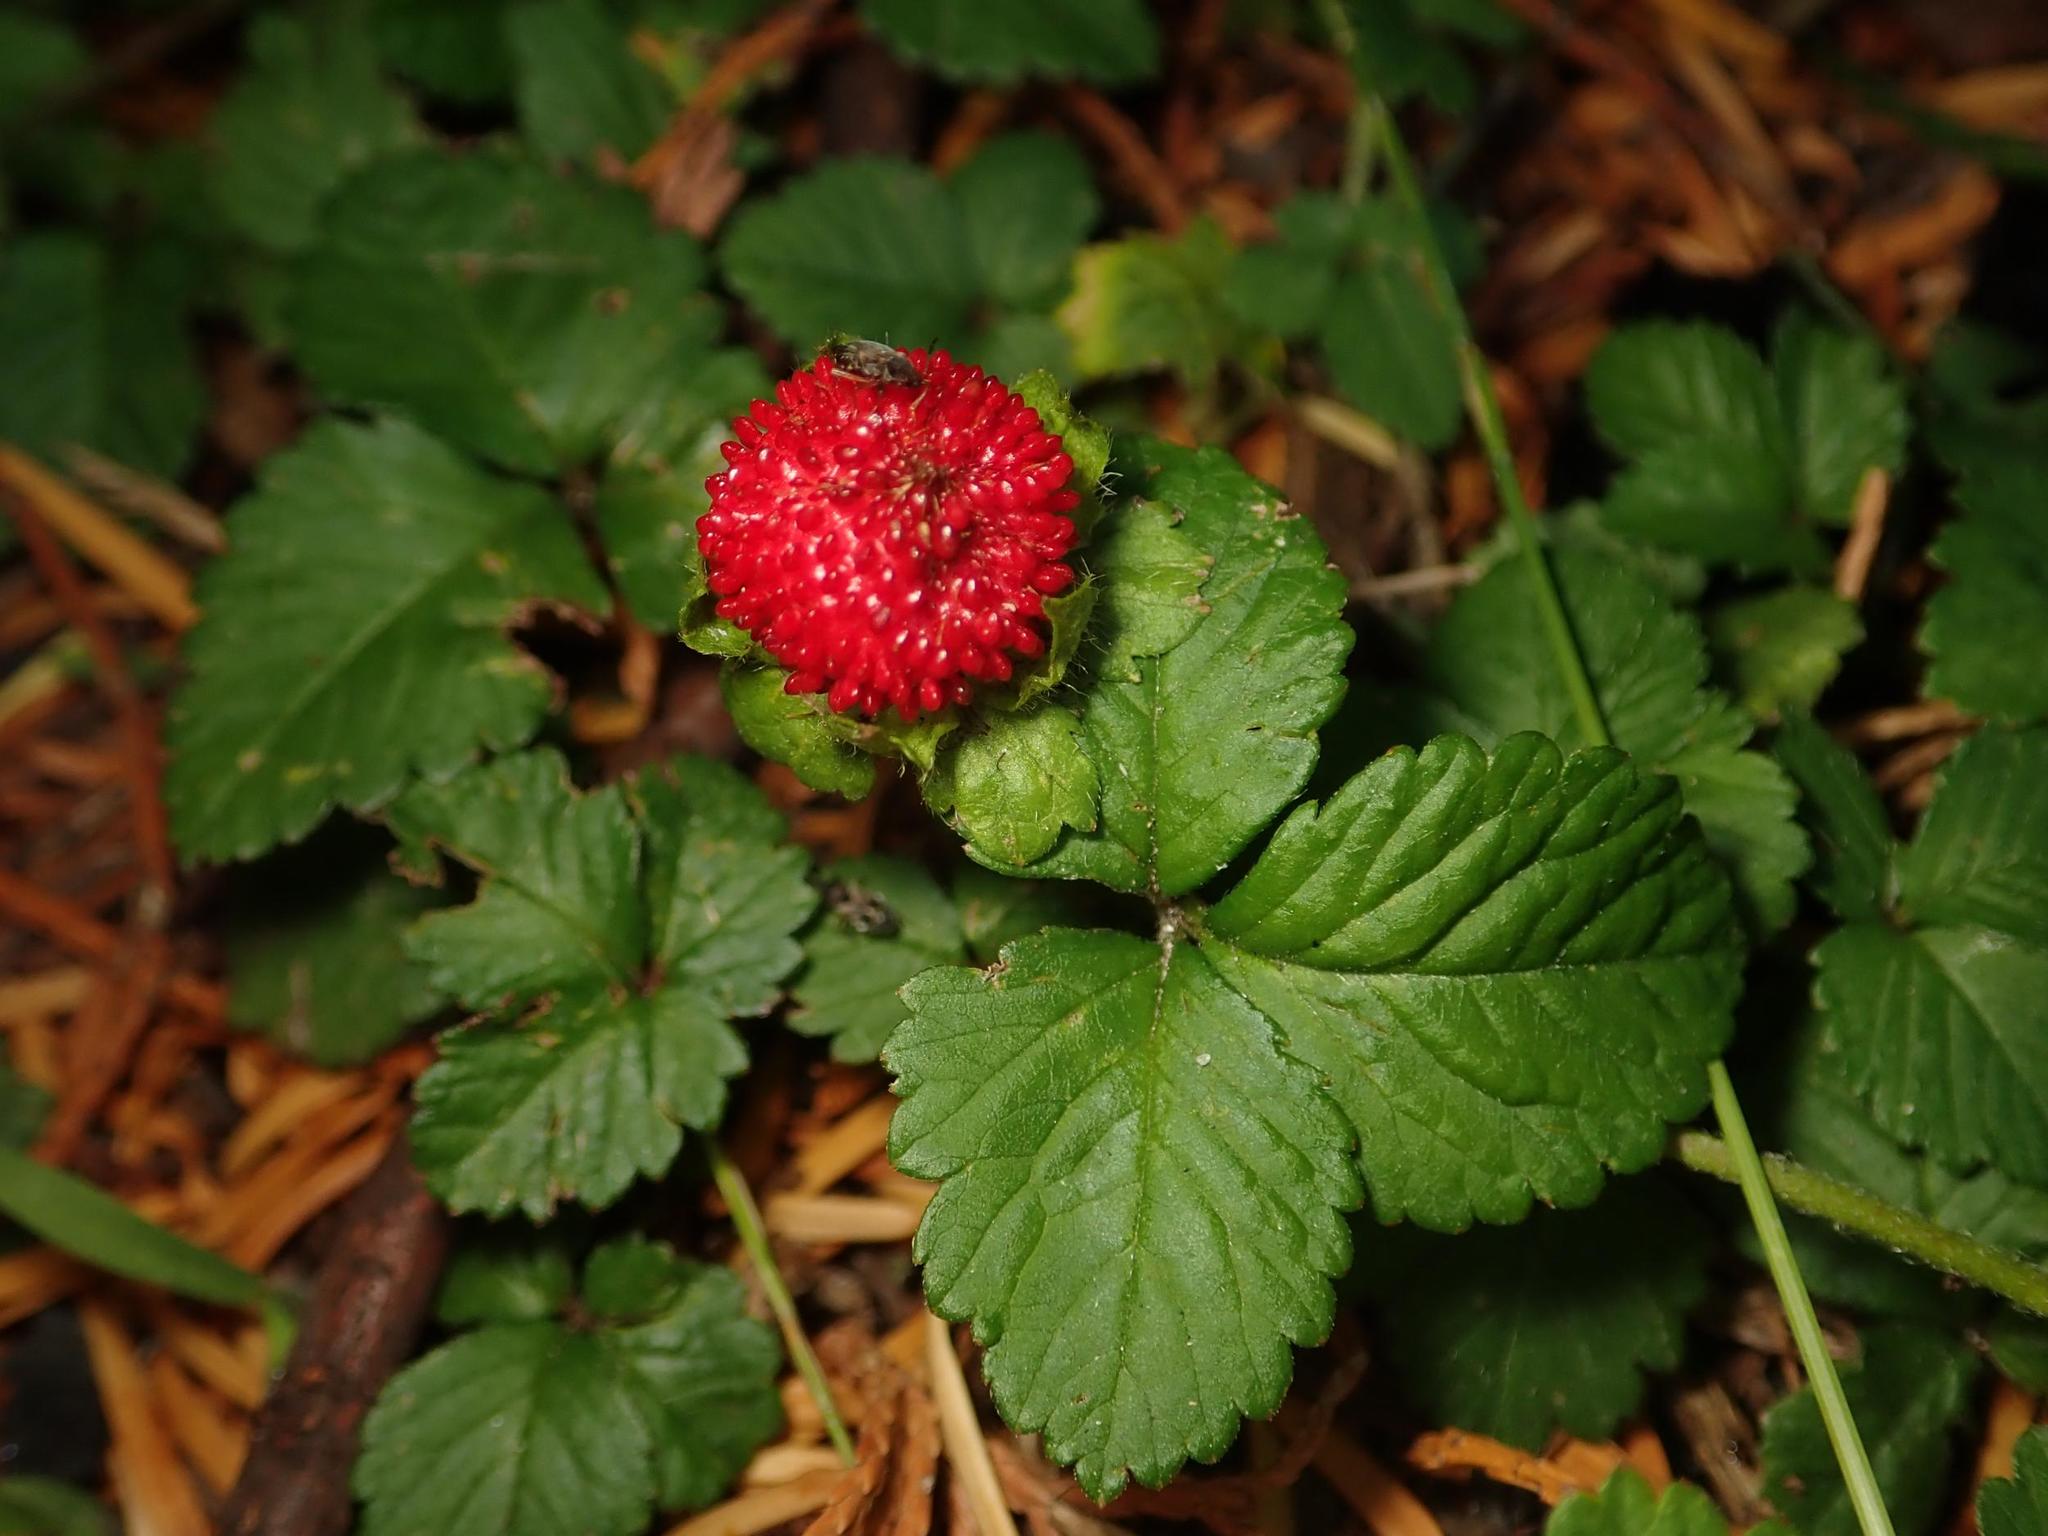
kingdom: Plantae
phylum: Tracheophyta
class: Magnoliopsida
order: Rosales
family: Rosaceae
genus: Potentilla
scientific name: Potentilla indica
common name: Yellow-flowered strawberry
